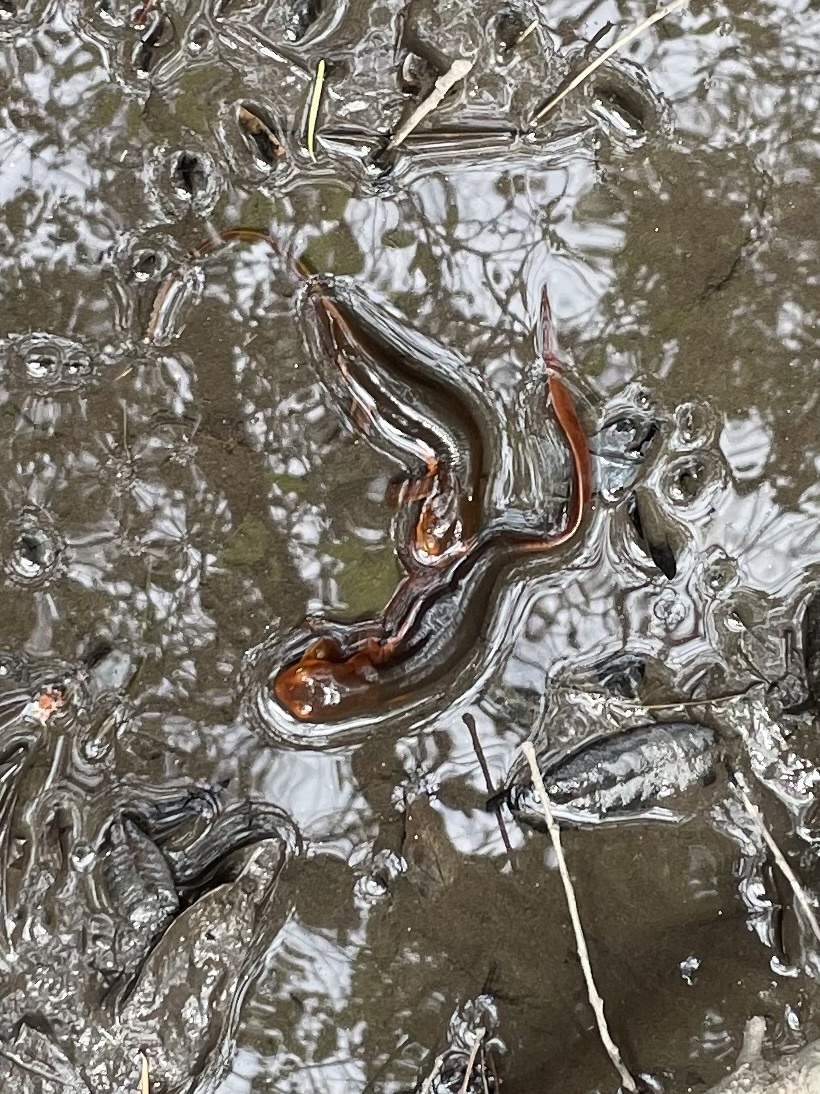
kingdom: Animalia
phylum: Chordata
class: Amphibia
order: Caudata
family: Salamandridae
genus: Taricha
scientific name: Taricha sierrae
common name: Sierra newt
